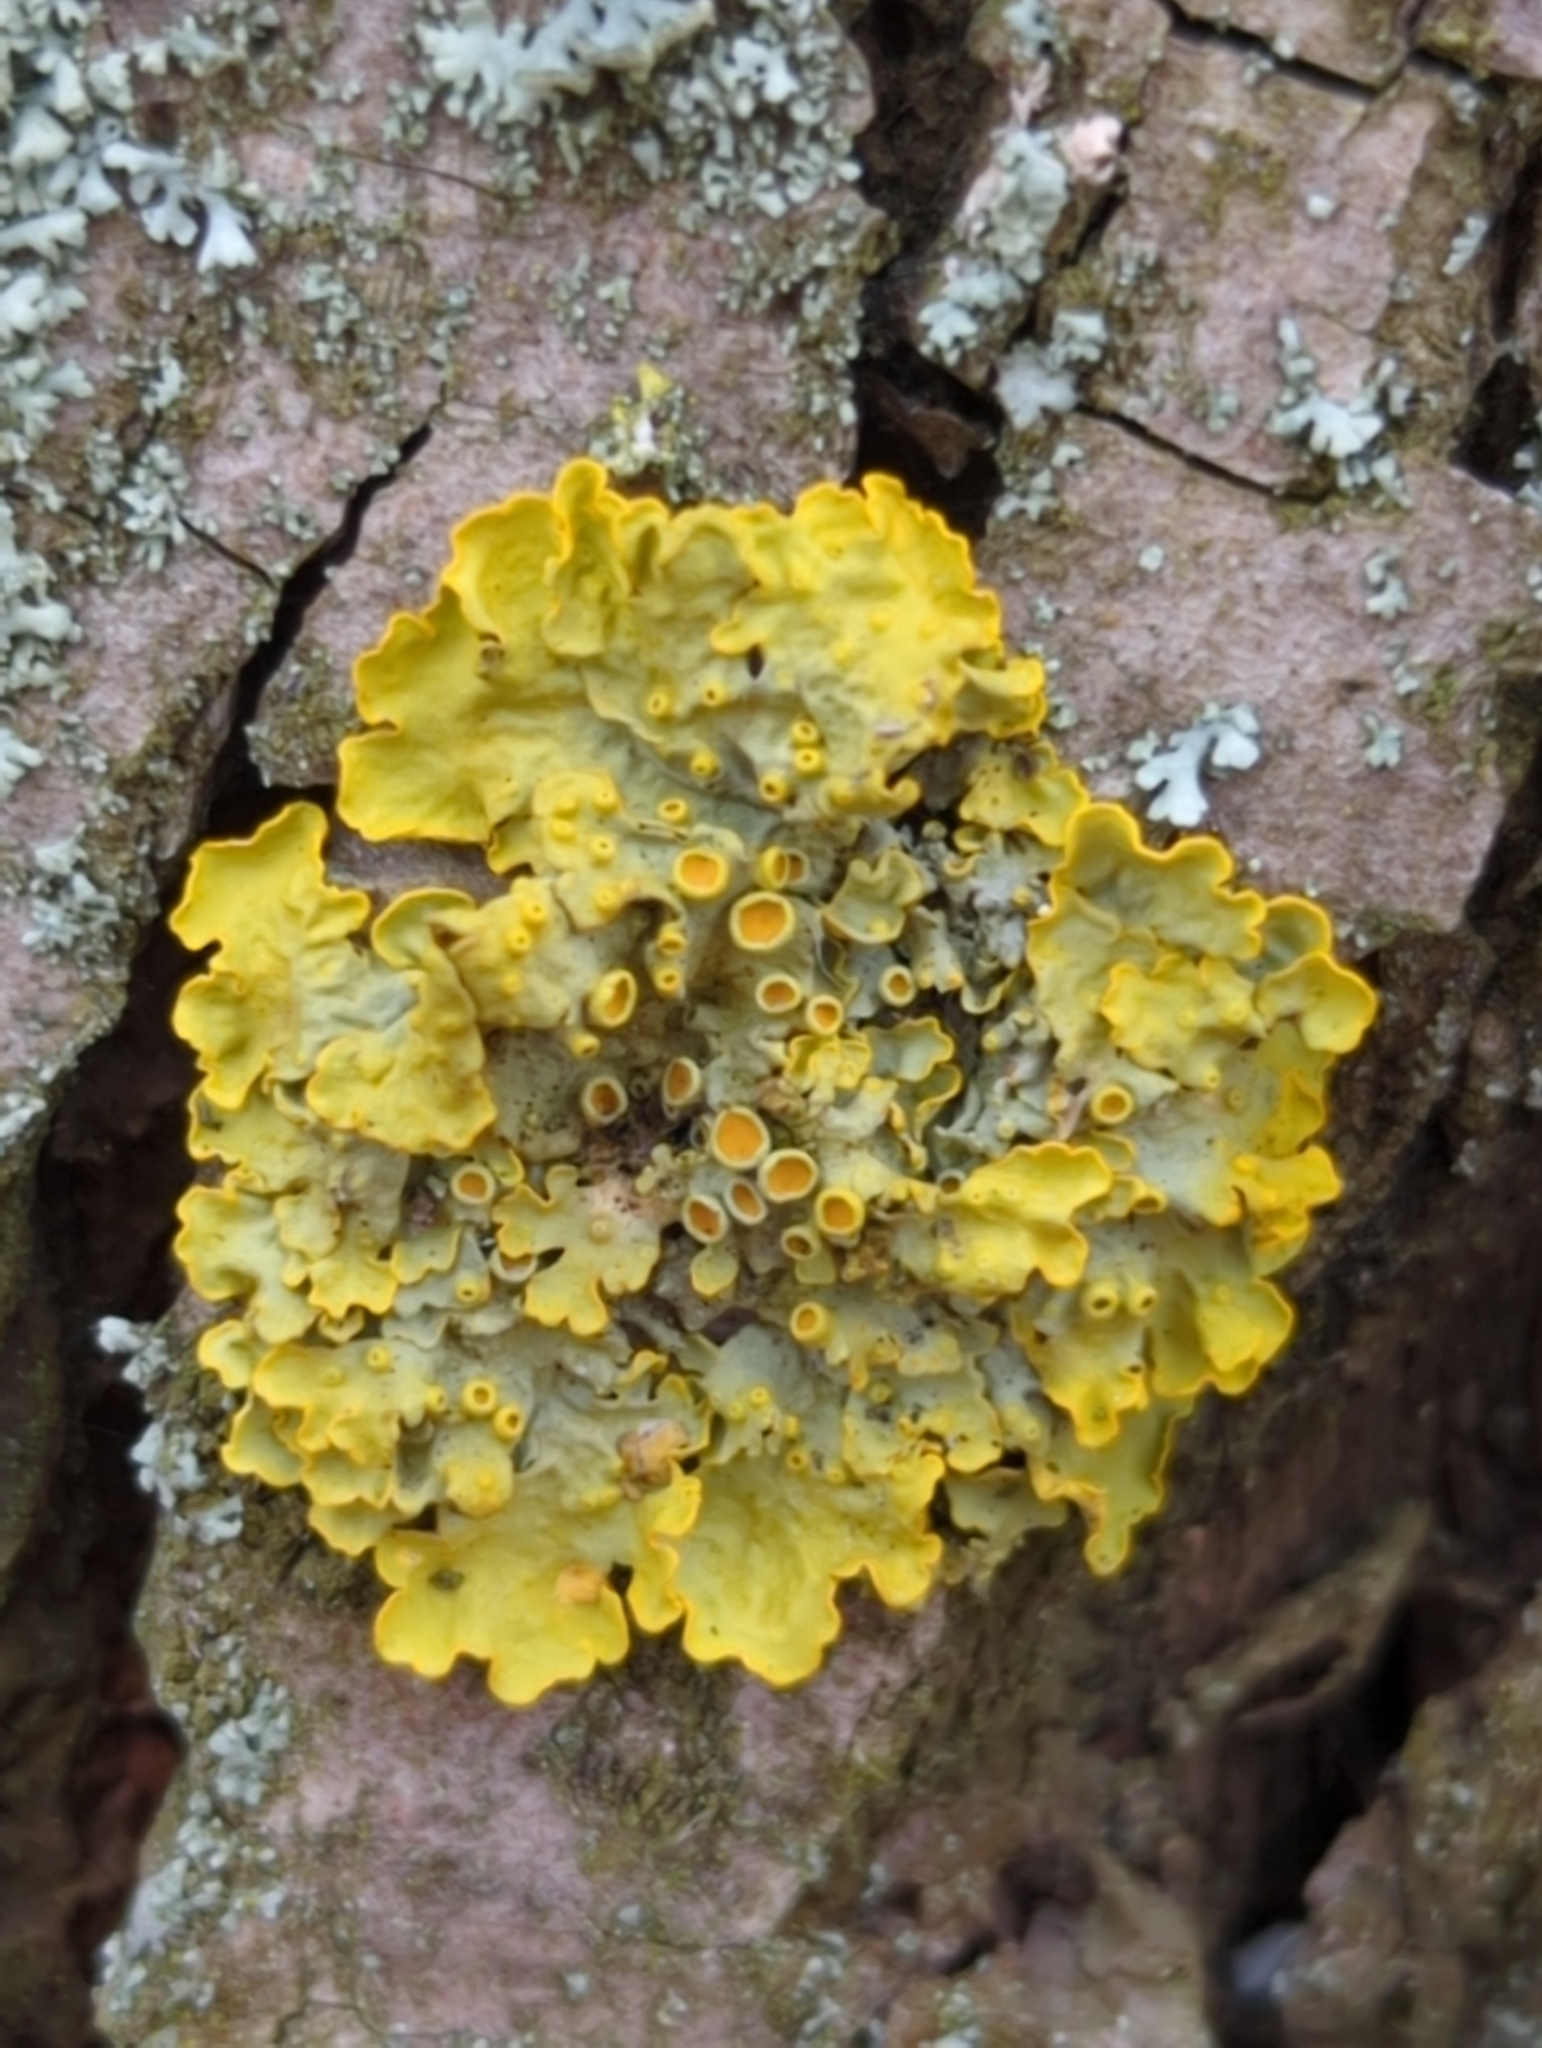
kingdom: Fungi
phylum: Ascomycota
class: Lecanoromycetes
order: Teloschistales
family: Teloschistaceae
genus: Xanthoria
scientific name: Xanthoria parietina
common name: Common orange lichen
